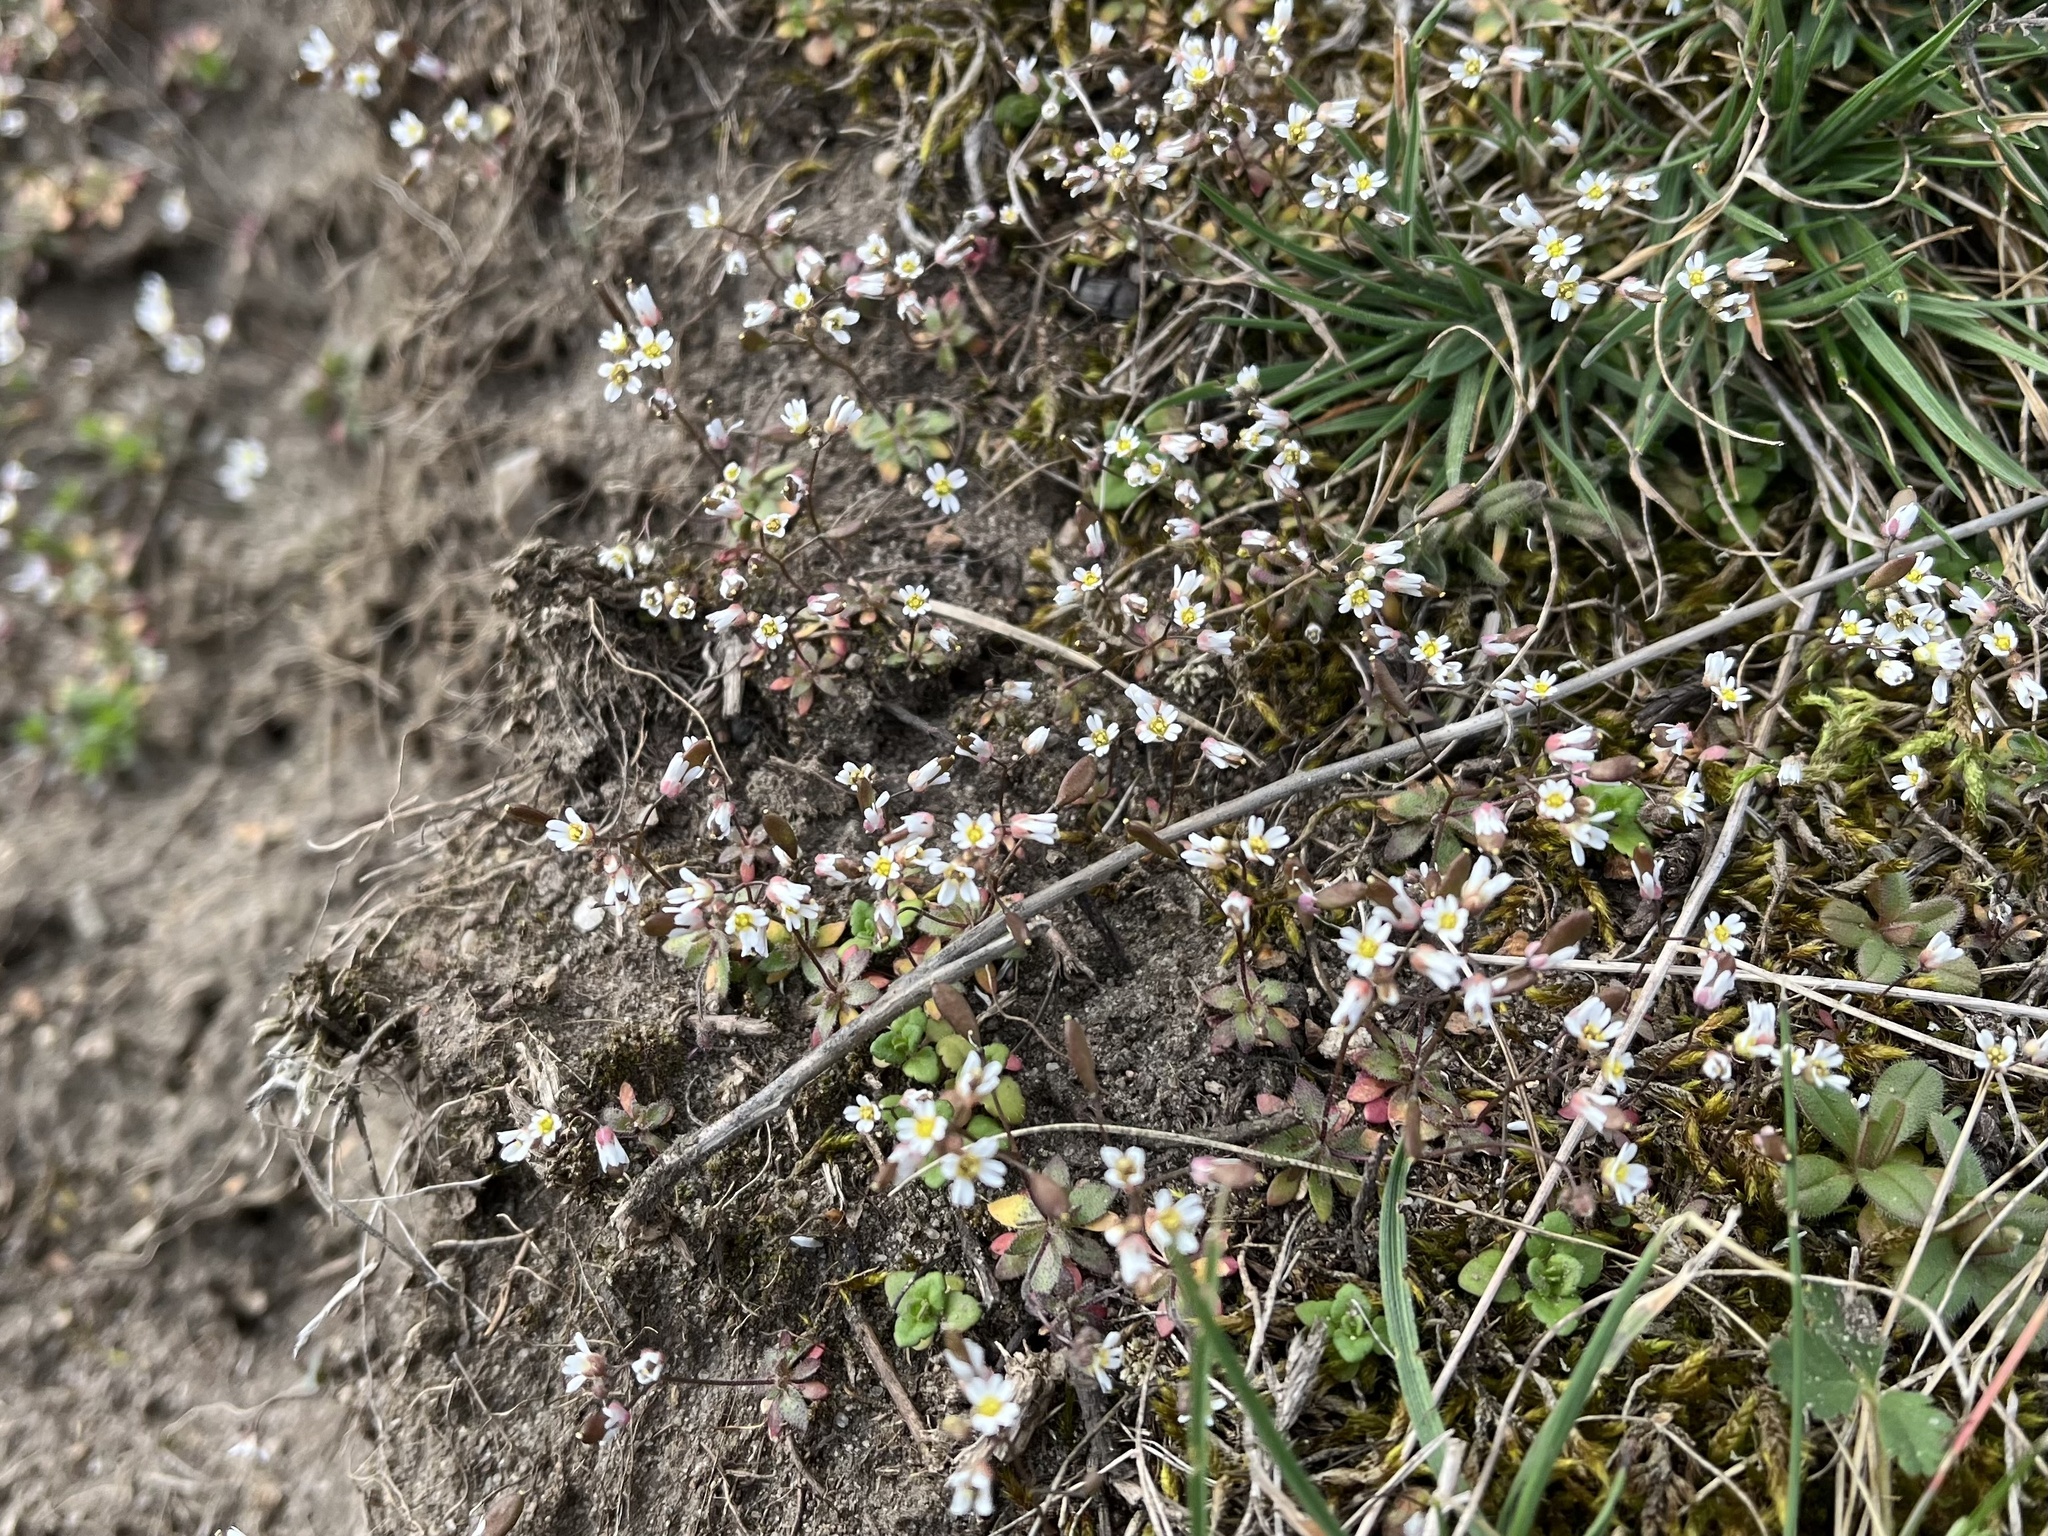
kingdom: Plantae
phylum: Tracheophyta
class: Magnoliopsida
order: Brassicales
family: Brassicaceae
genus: Draba
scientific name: Draba verna
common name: Spring draba
